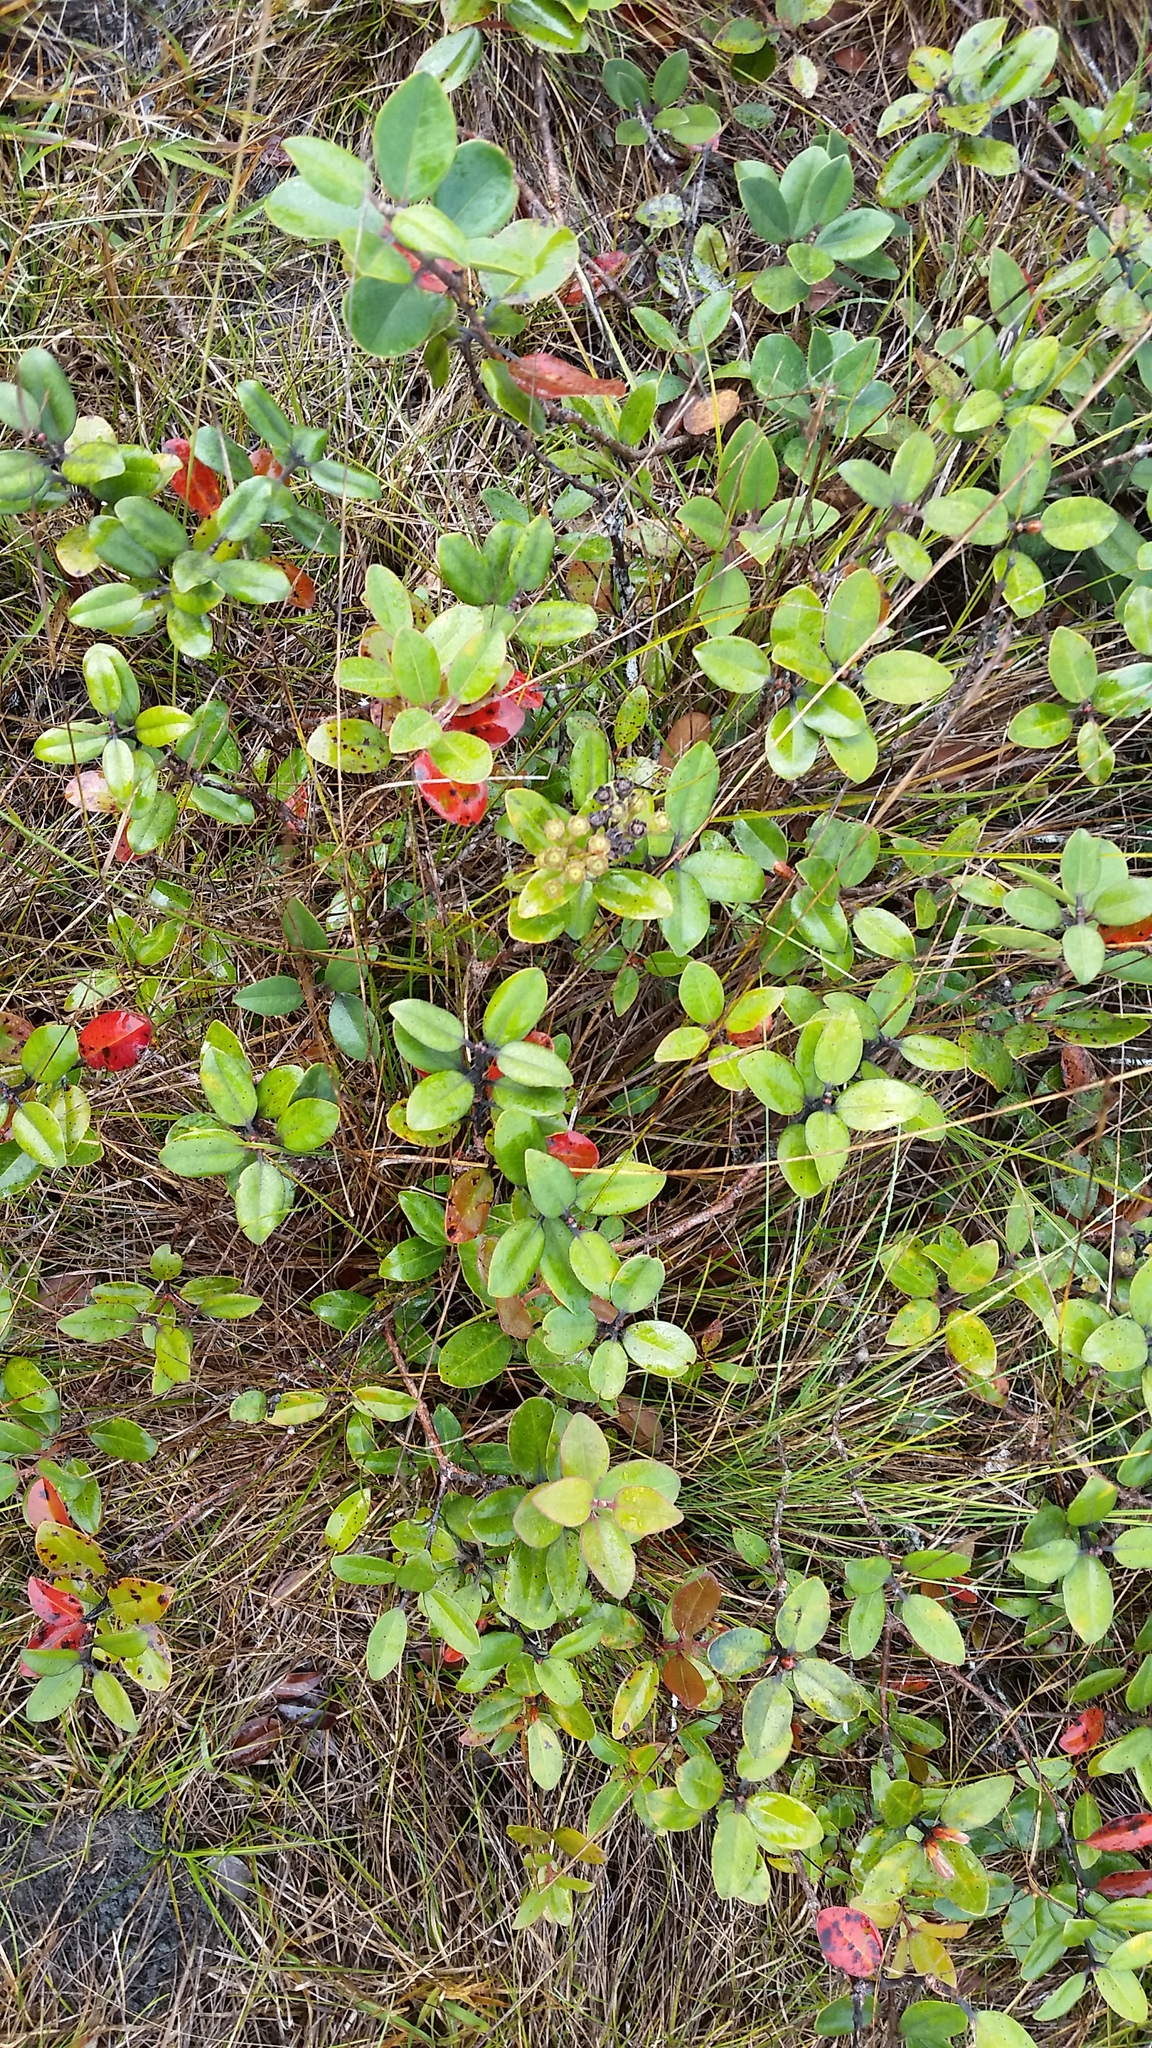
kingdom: Plantae
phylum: Tracheophyta
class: Magnoliopsida
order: Myrtales
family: Myrtaceae
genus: Metrosideros
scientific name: Metrosideros polymorpha
